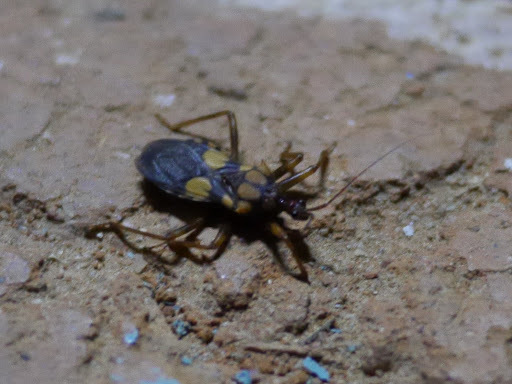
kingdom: Animalia
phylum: Arthropoda
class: Insecta
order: Hemiptera
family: Reduviidae
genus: Acanthaspis
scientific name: Acanthaspis petax
